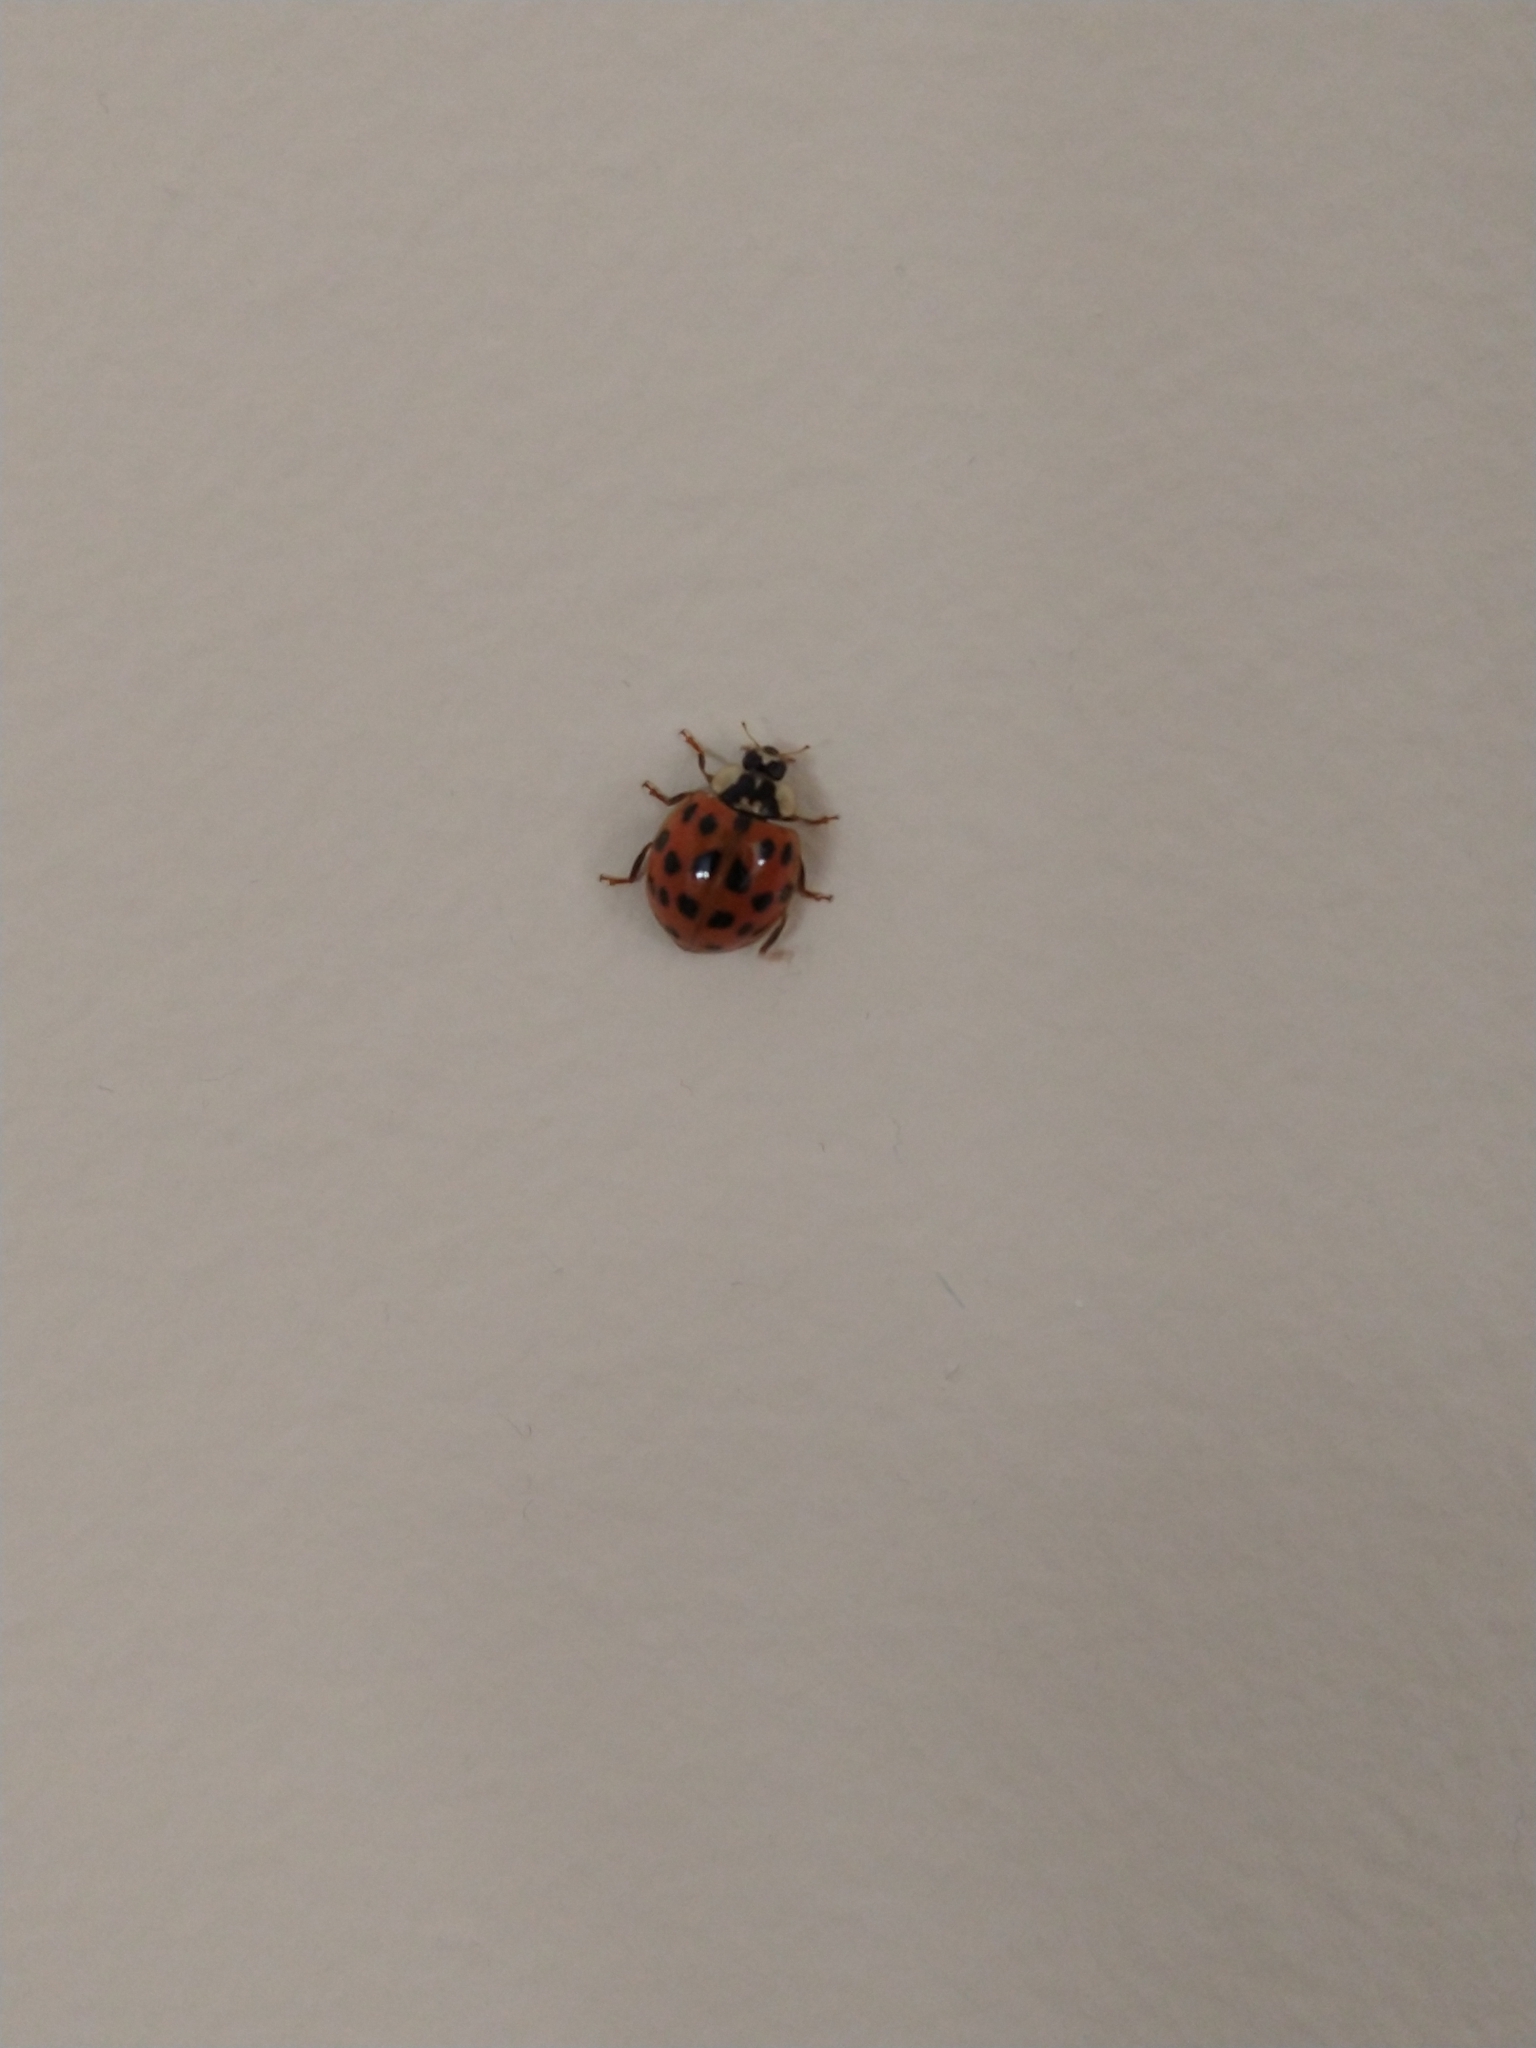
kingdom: Animalia
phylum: Arthropoda
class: Insecta
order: Coleoptera
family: Coccinellidae
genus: Harmonia
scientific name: Harmonia axyridis
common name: Harlequin ladybird
